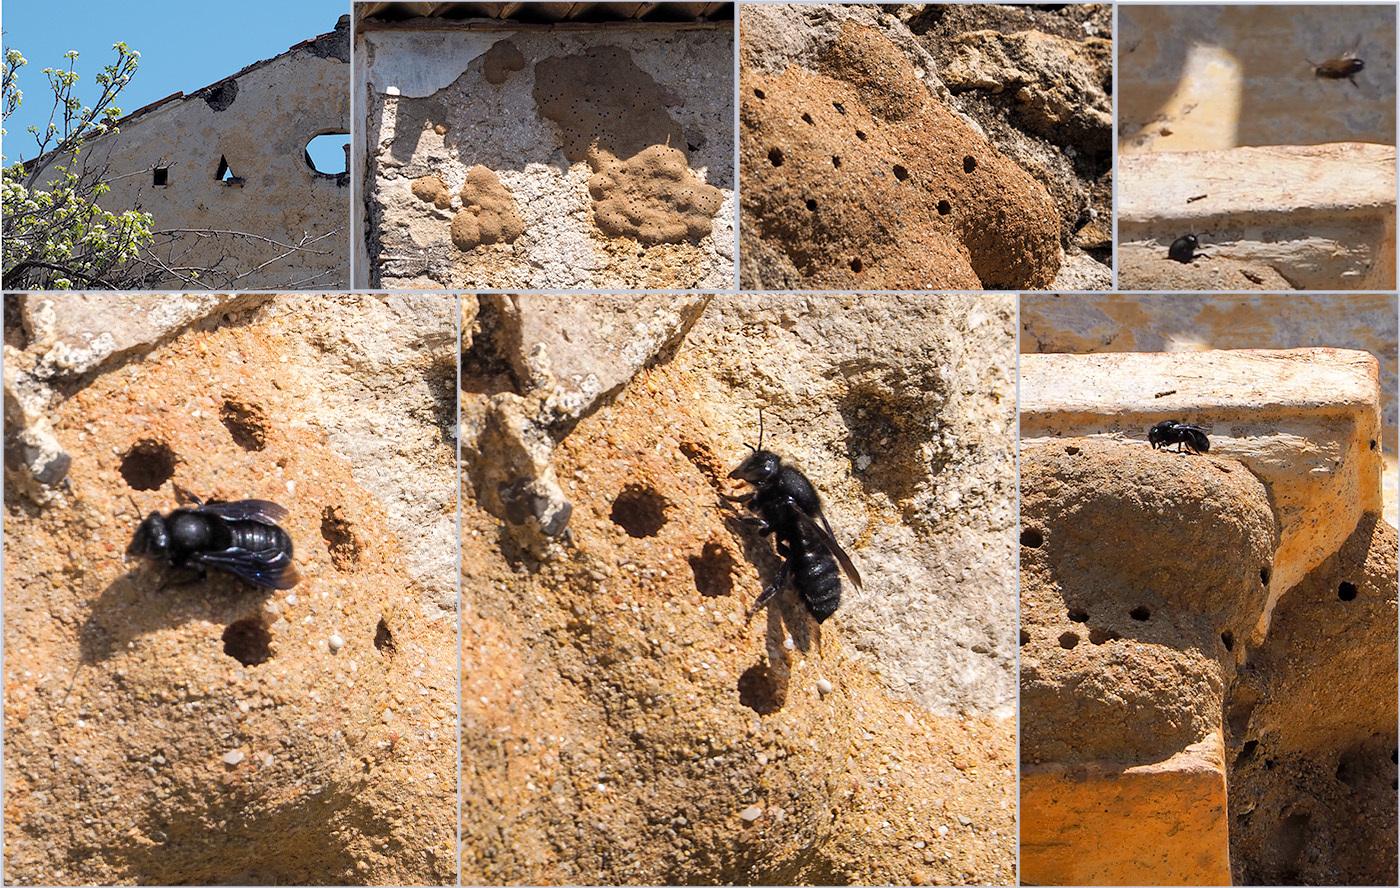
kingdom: Animalia
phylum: Arthropoda
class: Insecta
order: Hymenoptera
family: Megachilidae
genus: Megachile
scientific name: Megachile parietina
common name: Black mud bee
